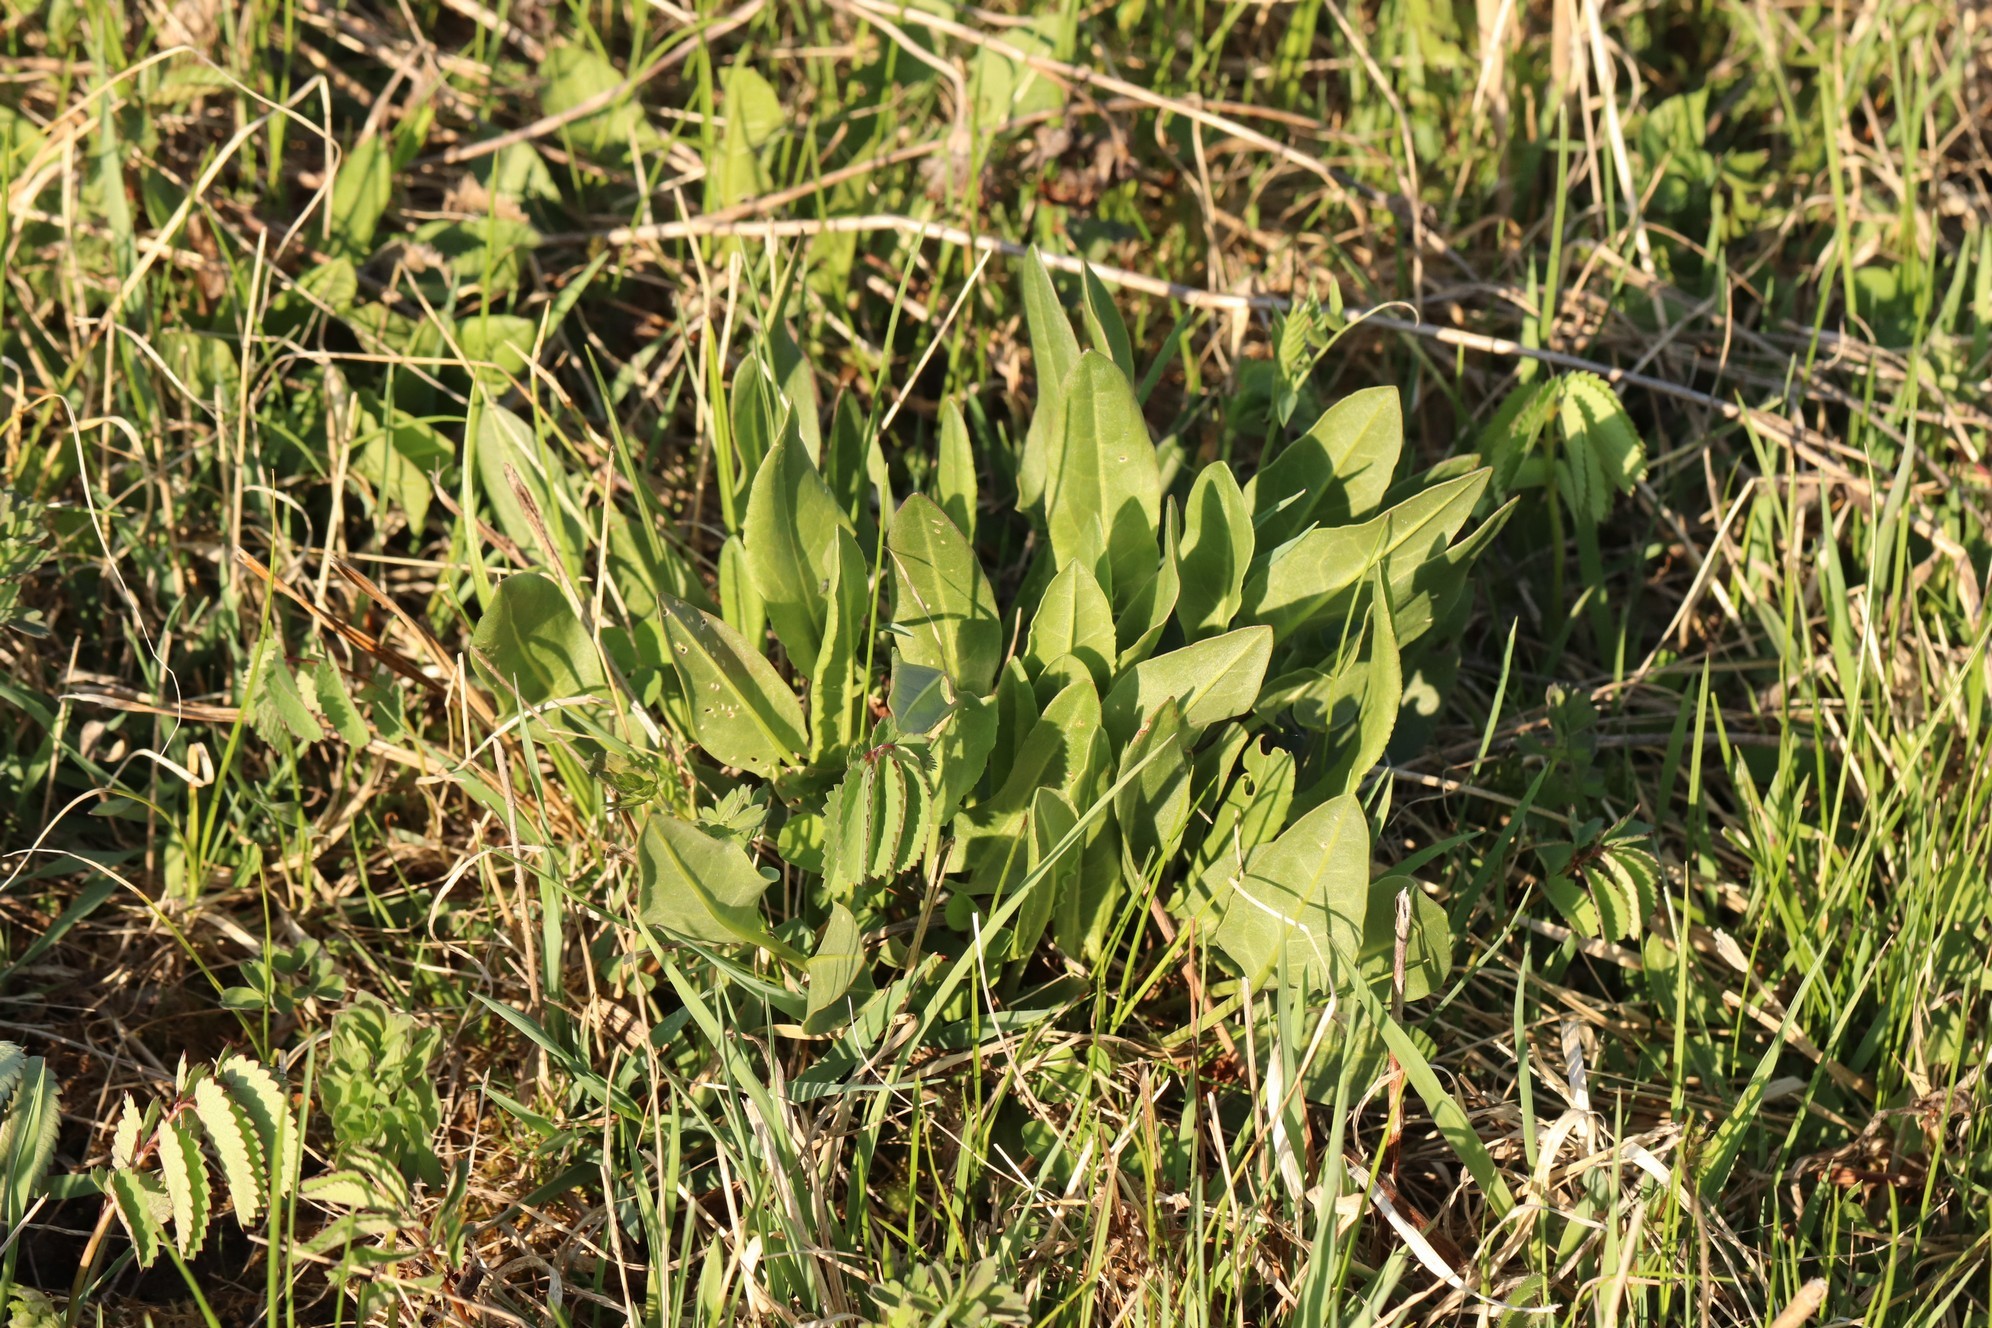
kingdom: Plantae
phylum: Tracheophyta
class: Magnoliopsida
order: Caryophyllales
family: Polygonaceae
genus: Rumex
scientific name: Rumex acetosa
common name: Garden sorrel
